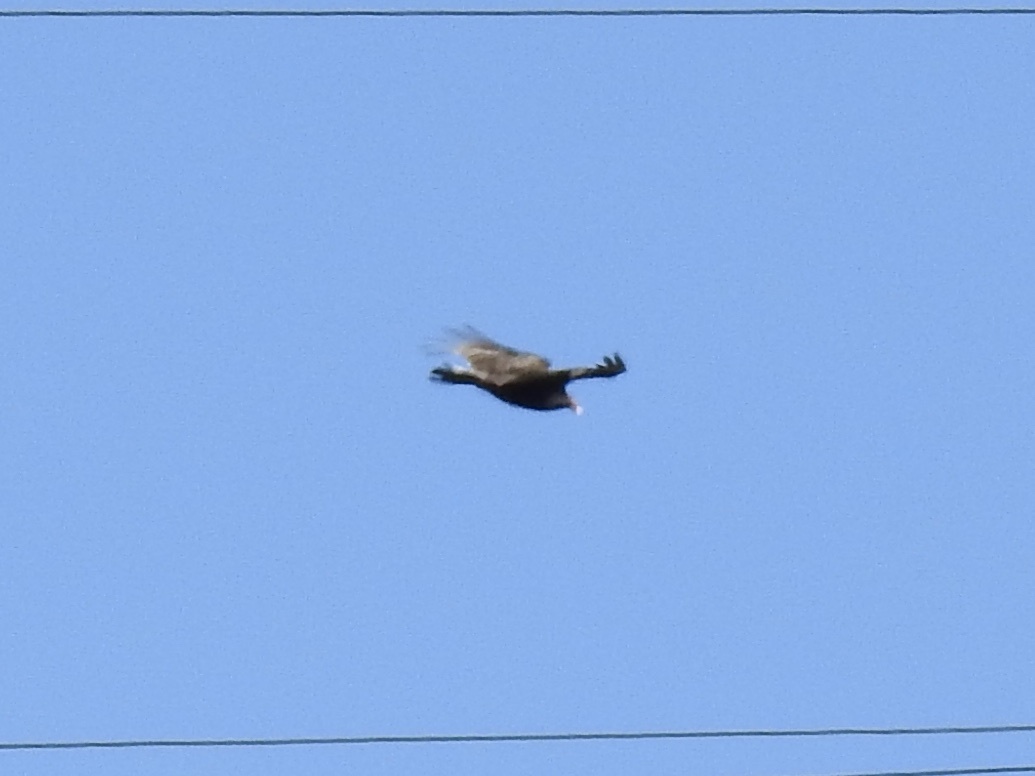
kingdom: Animalia
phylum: Chordata
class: Aves
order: Accipitriformes
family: Cathartidae
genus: Cathartes
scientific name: Cathartes aura
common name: Turkey vulture
